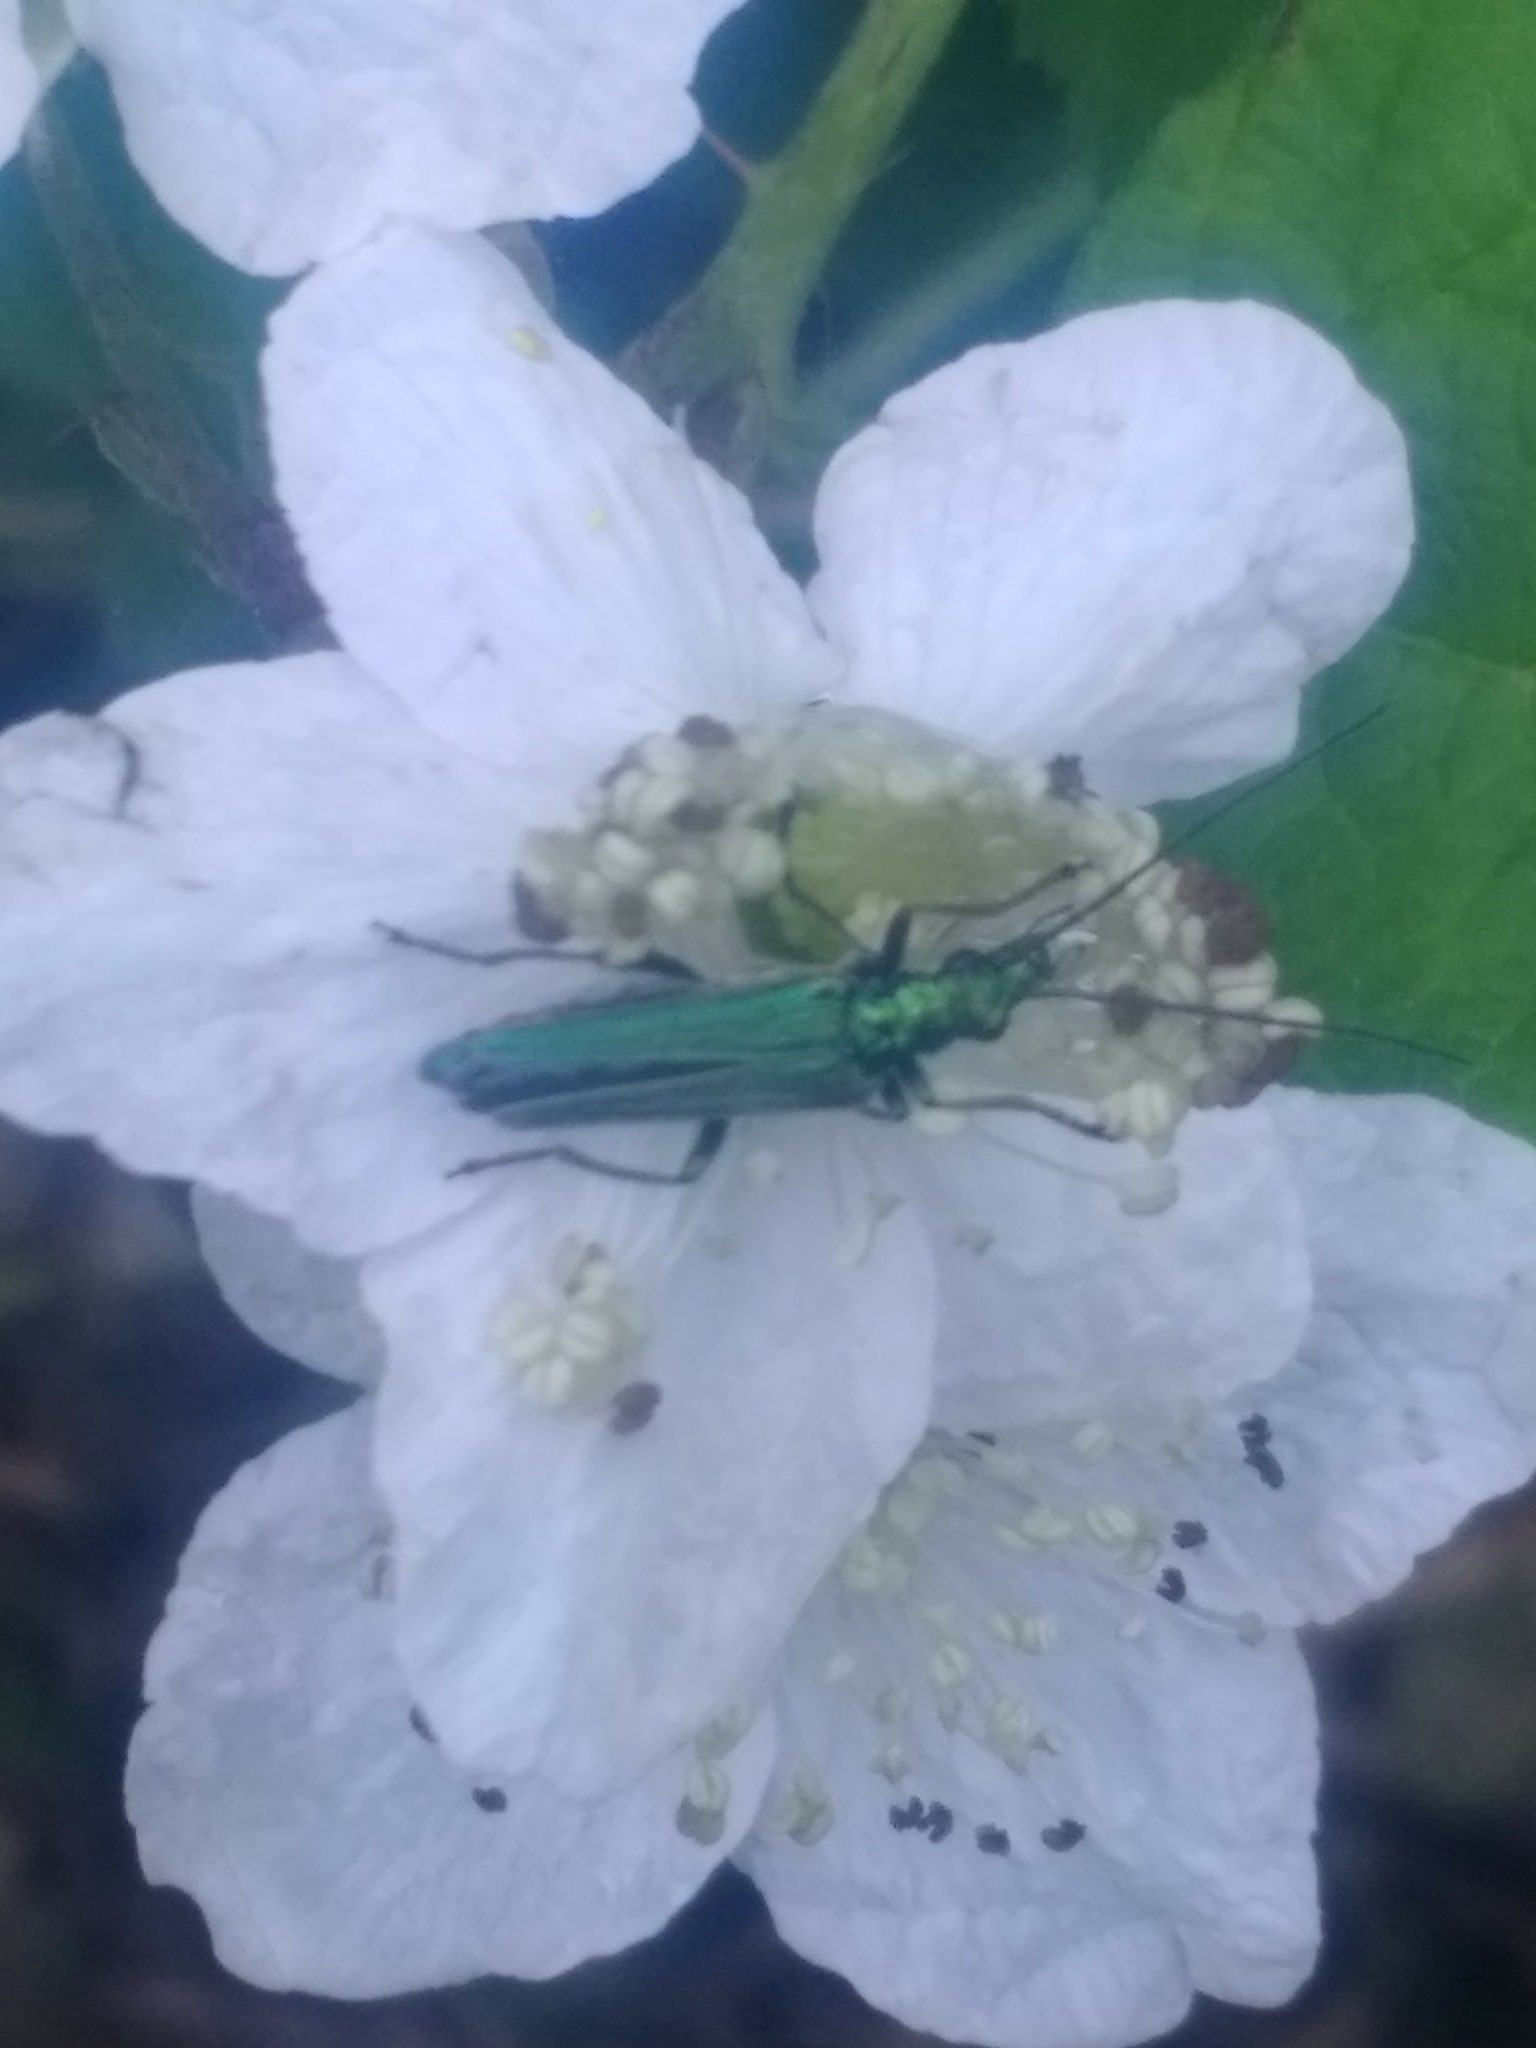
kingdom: Animalia
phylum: Arthropoda
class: Insecta
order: Coleoptera
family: Oedemeridae
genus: Oedemera
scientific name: Oedemera nobilis
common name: Swollen-thighed beetle
